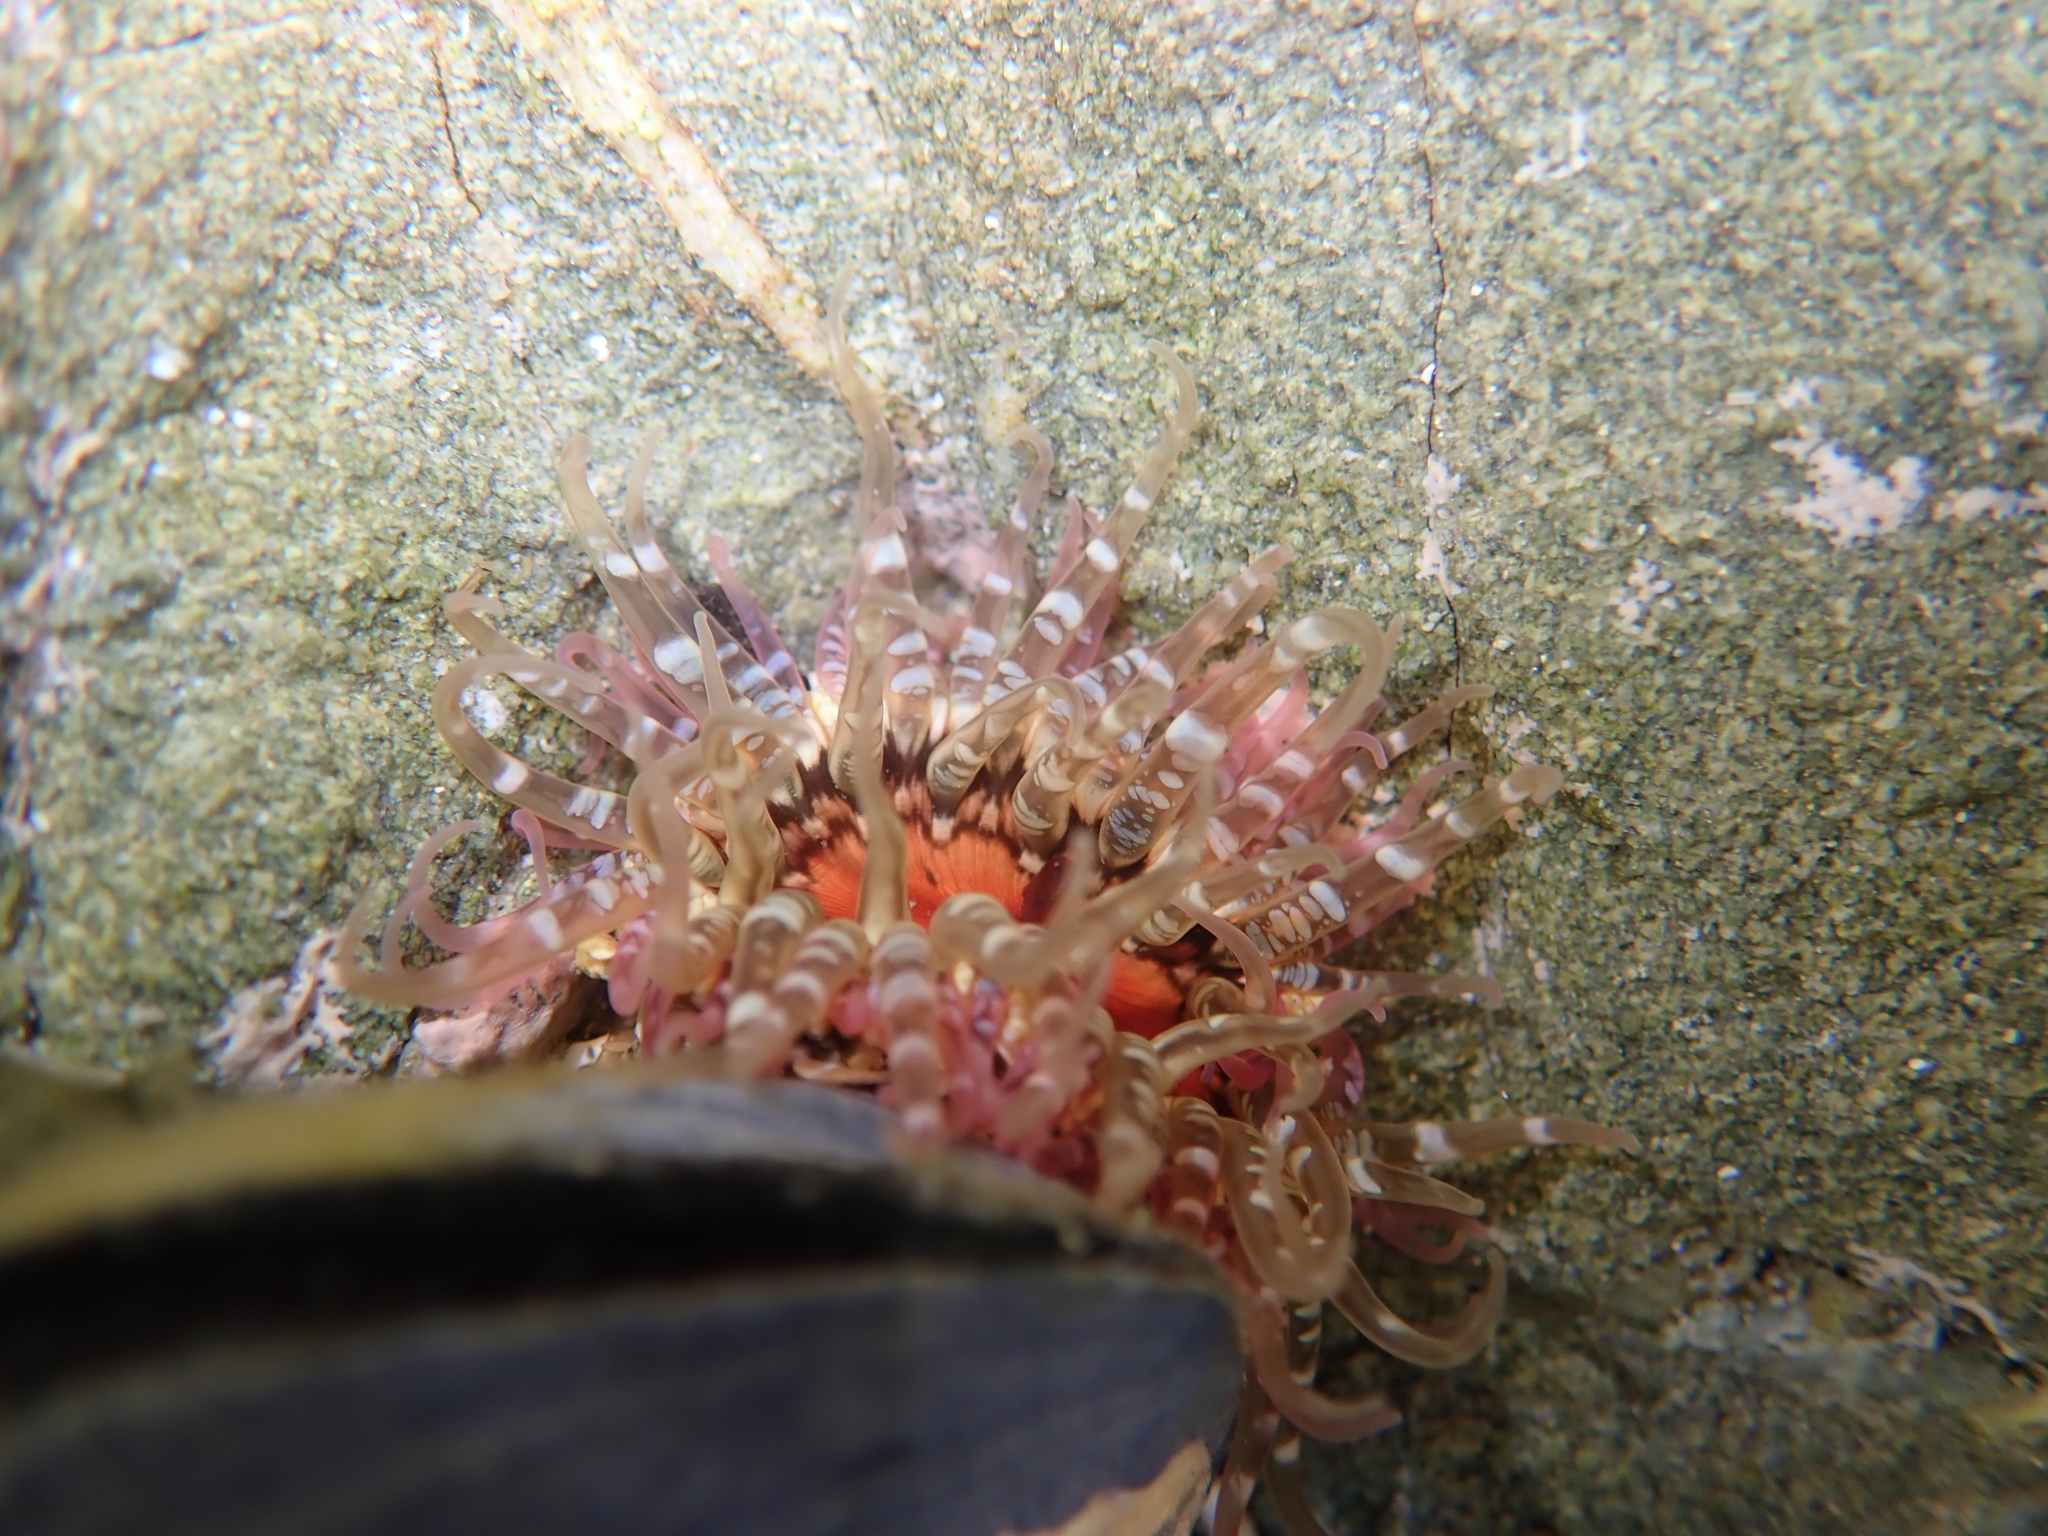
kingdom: Animalia
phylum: Cnidaria
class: Anthozoa
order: Actiniaria
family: Actiniidae
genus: Oulactis
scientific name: Oulactis muscosa
